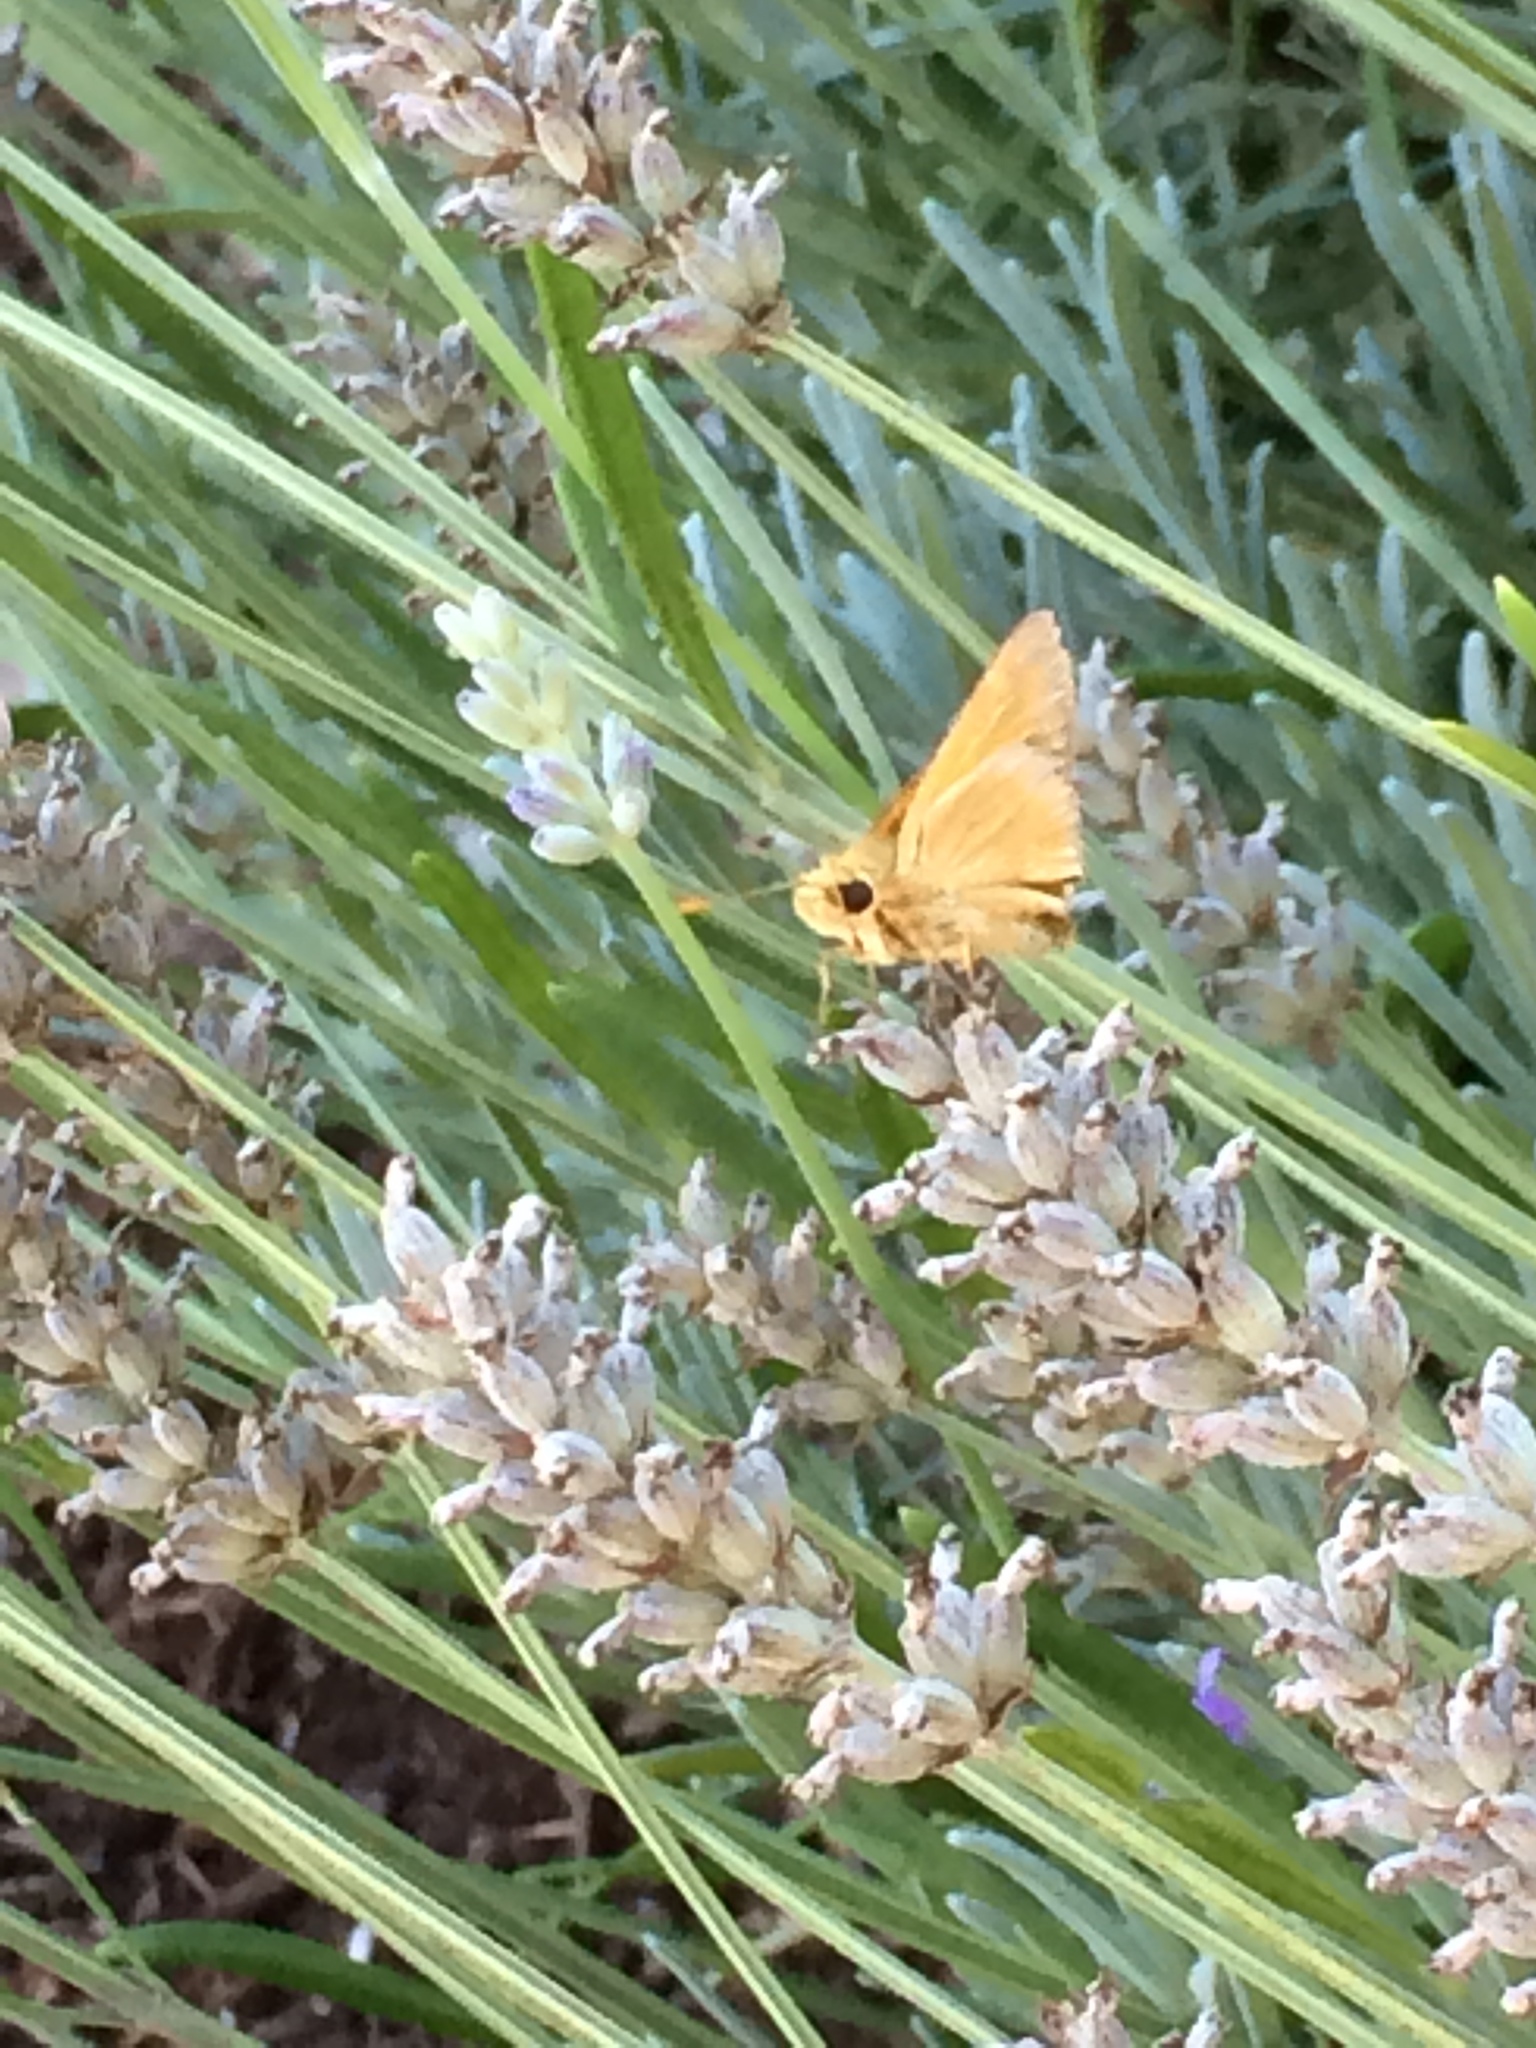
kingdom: Animalia
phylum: Arthropoda
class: Insecta
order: Lepidoptera
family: Hesperiidae
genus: Ochlodes
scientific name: Ochlodes sylvanoides
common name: Woodland skipper
